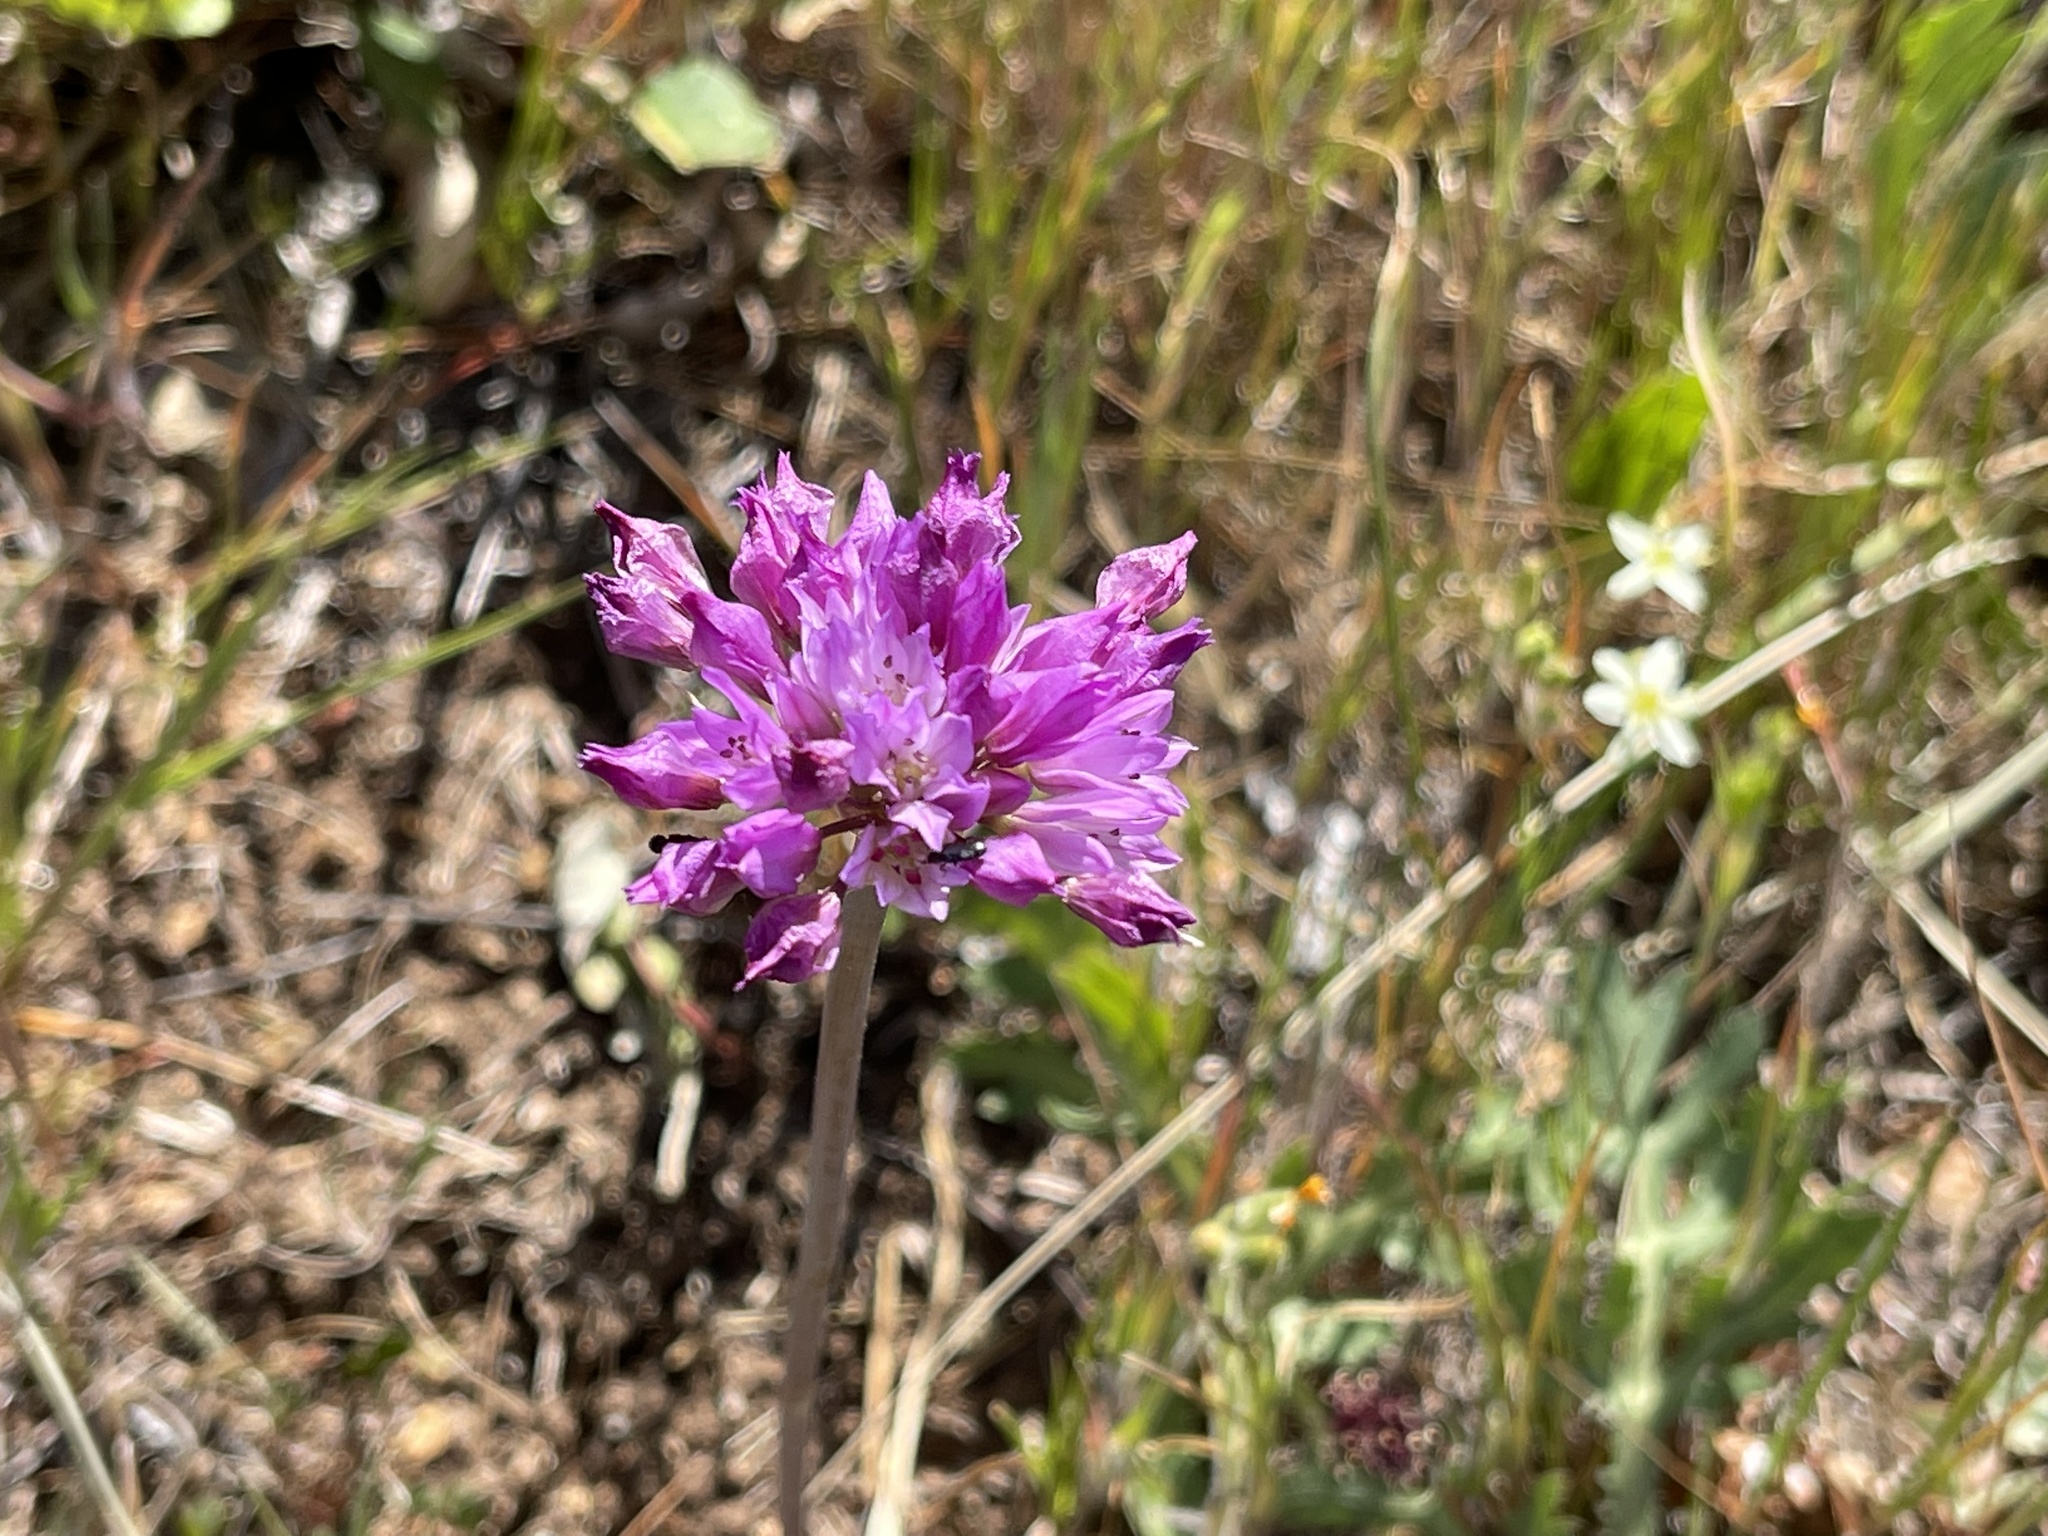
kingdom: Plantae
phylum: Tracheophyta
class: Liliopsida
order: Asparagales
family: Amaryllidaceae
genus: Allium
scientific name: Allium serra
